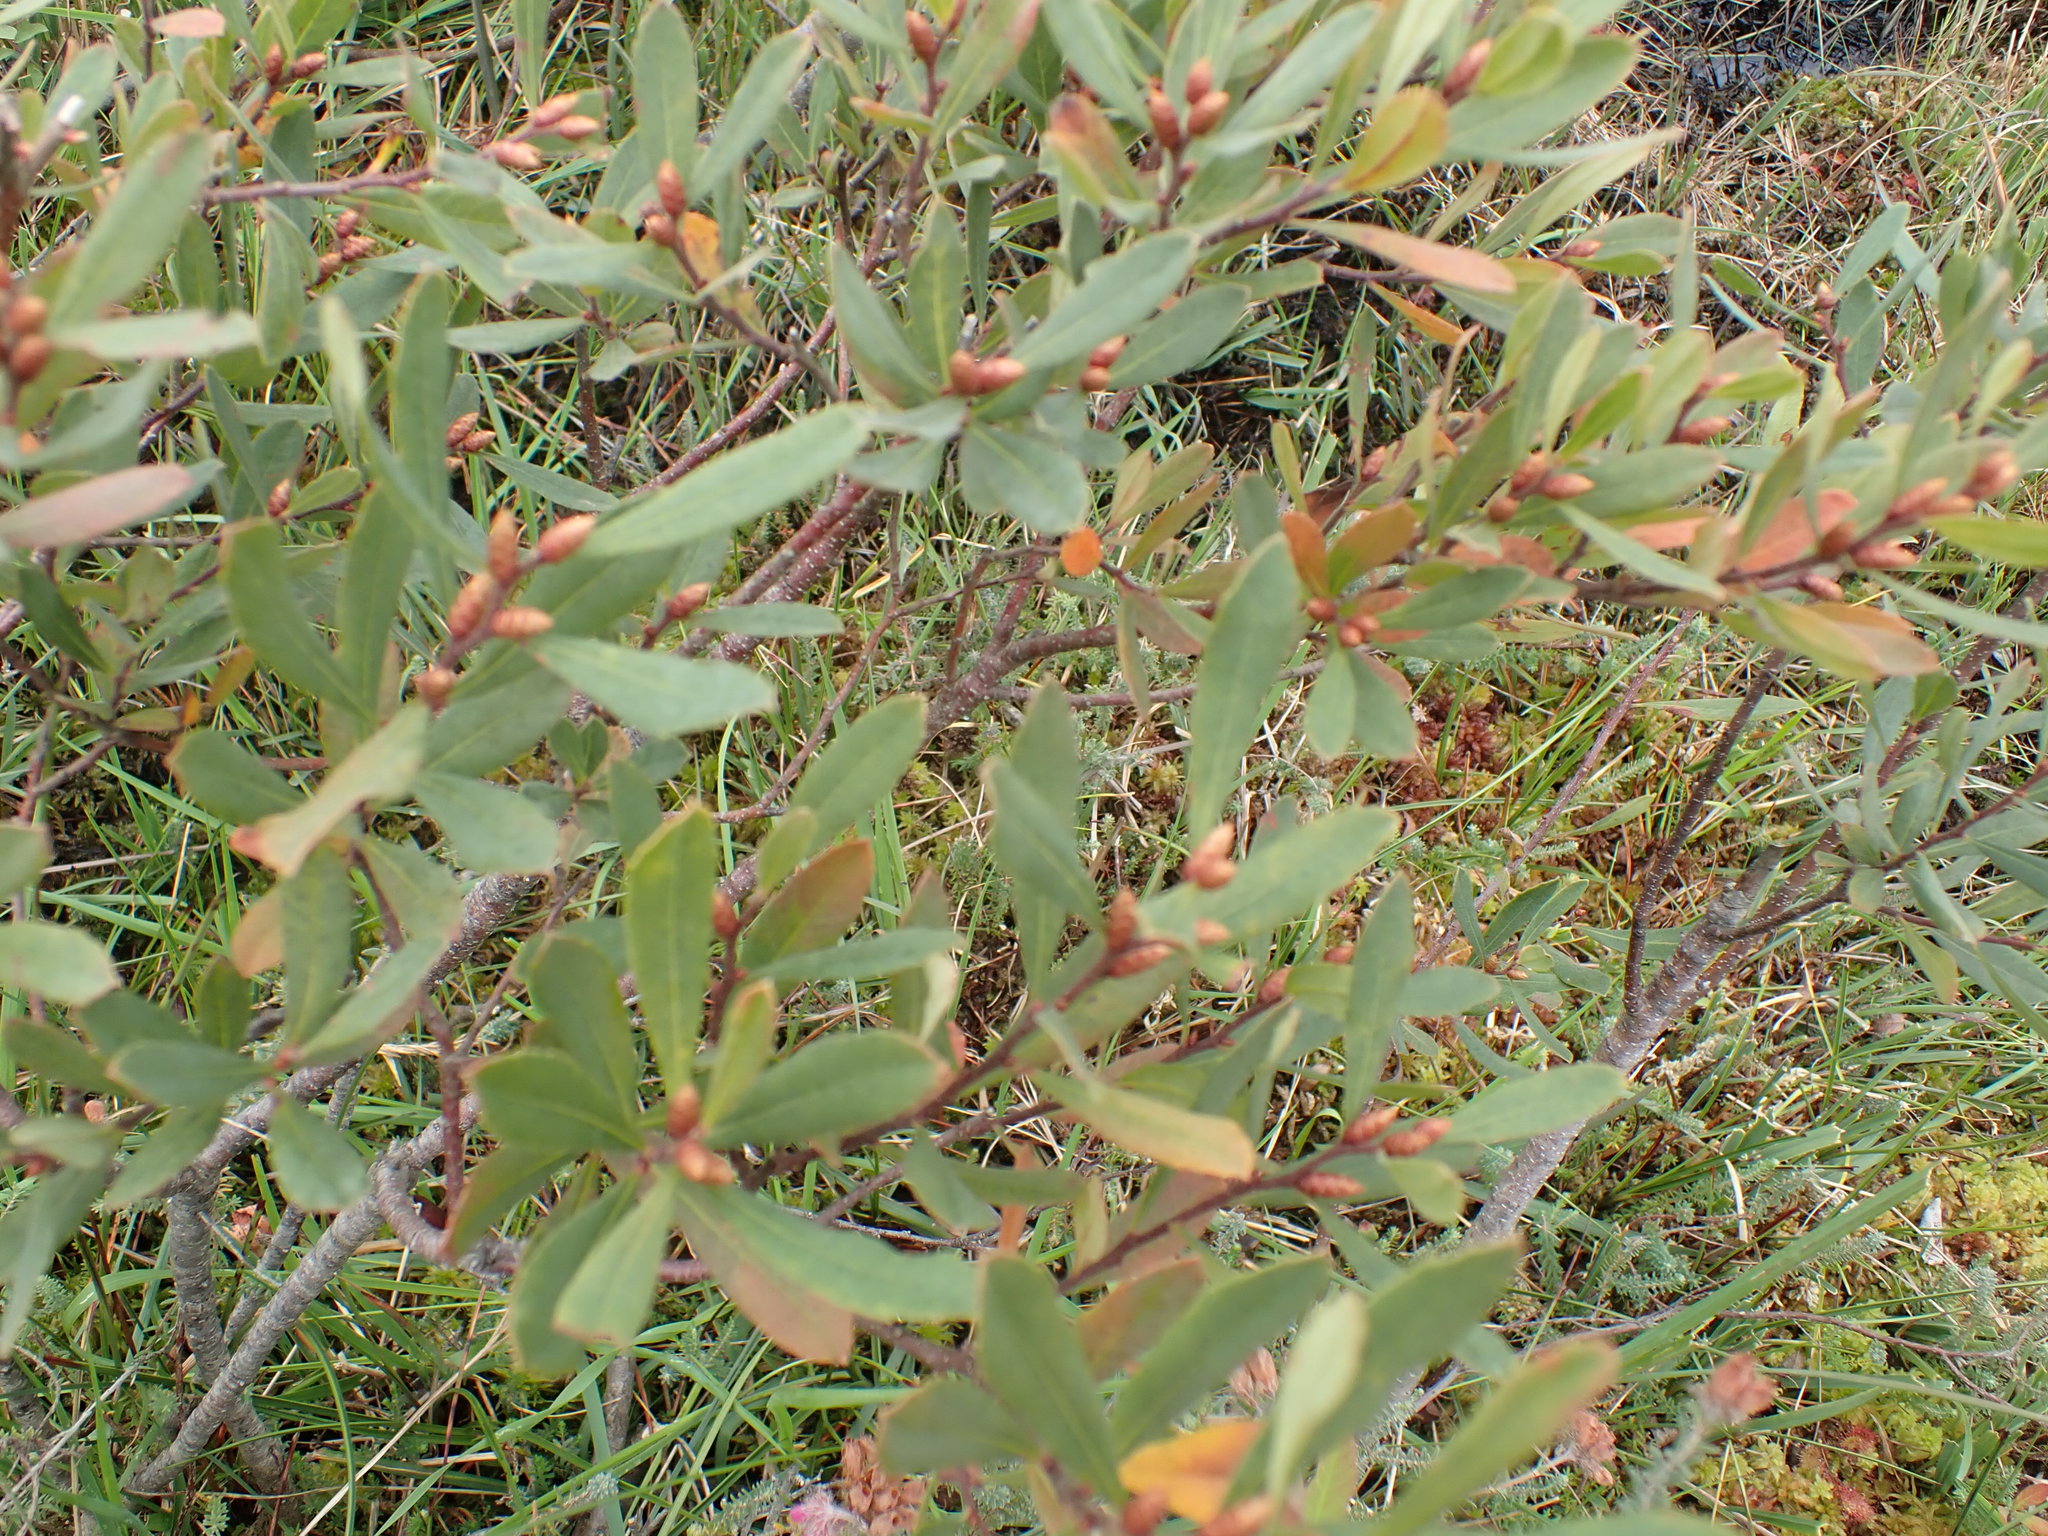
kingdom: Plantae
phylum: Tracheophyta
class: Magnoliopsida
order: Fagales
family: Myricaceae
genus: Myrica
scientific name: Myrica gale
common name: Sweet gale
